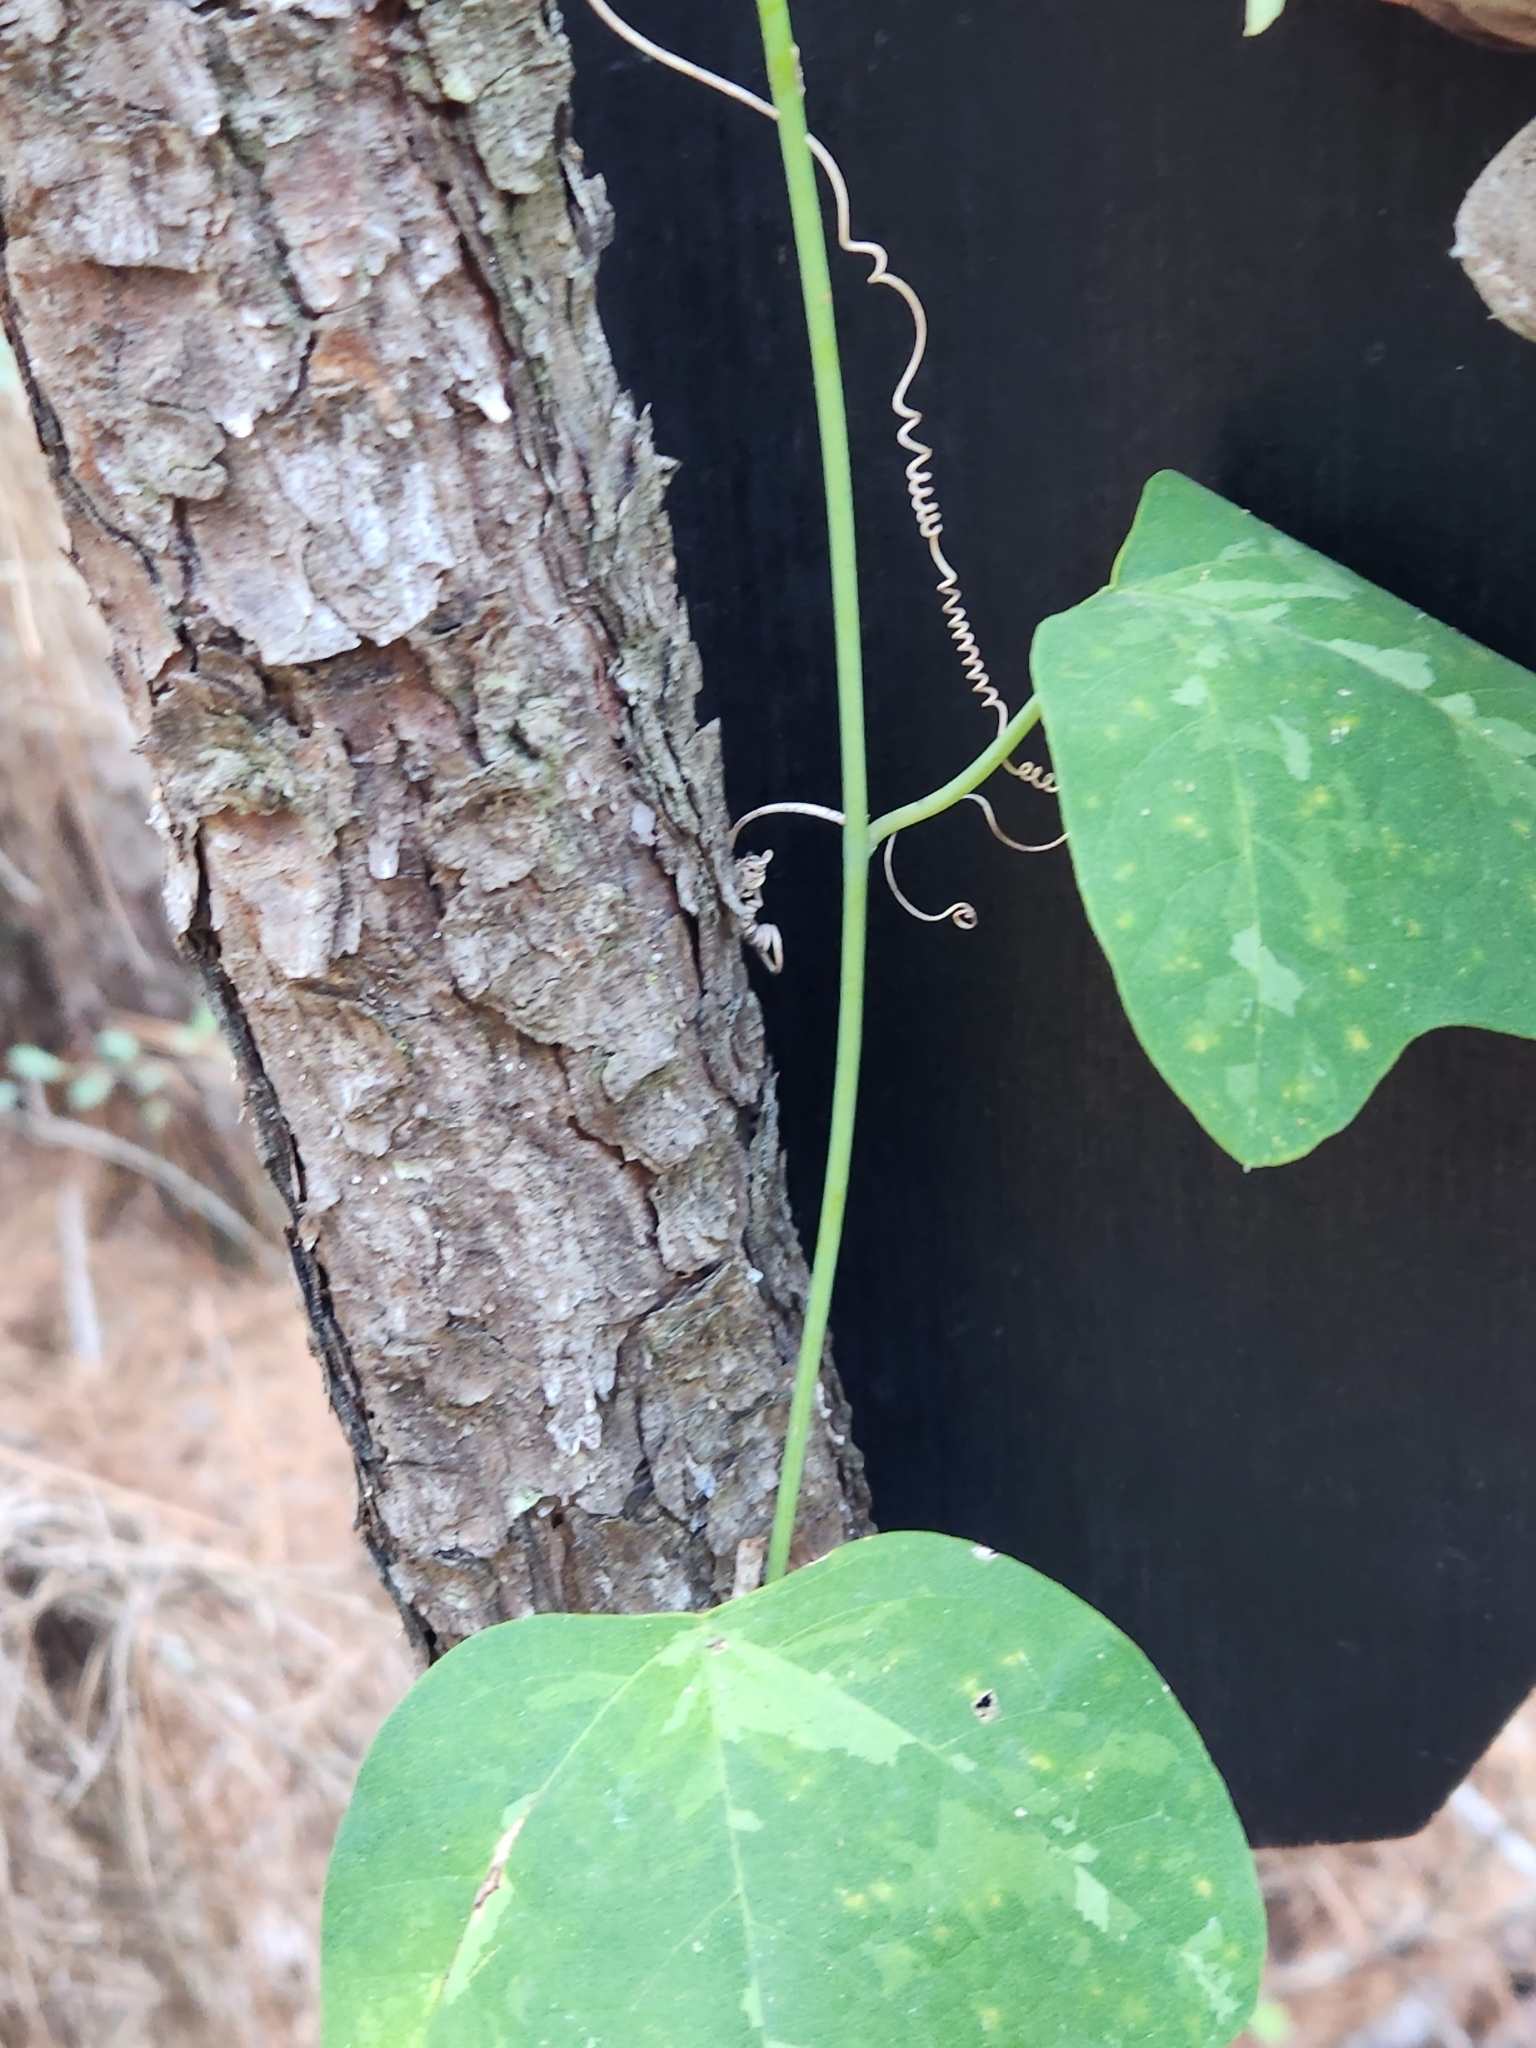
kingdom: Plantae
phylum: Tracheophyta
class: Magnoliopsida
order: Malpighiales
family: Passifloraceae
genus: Passiflora
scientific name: Passiflora lutea
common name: Yellow passionflower
